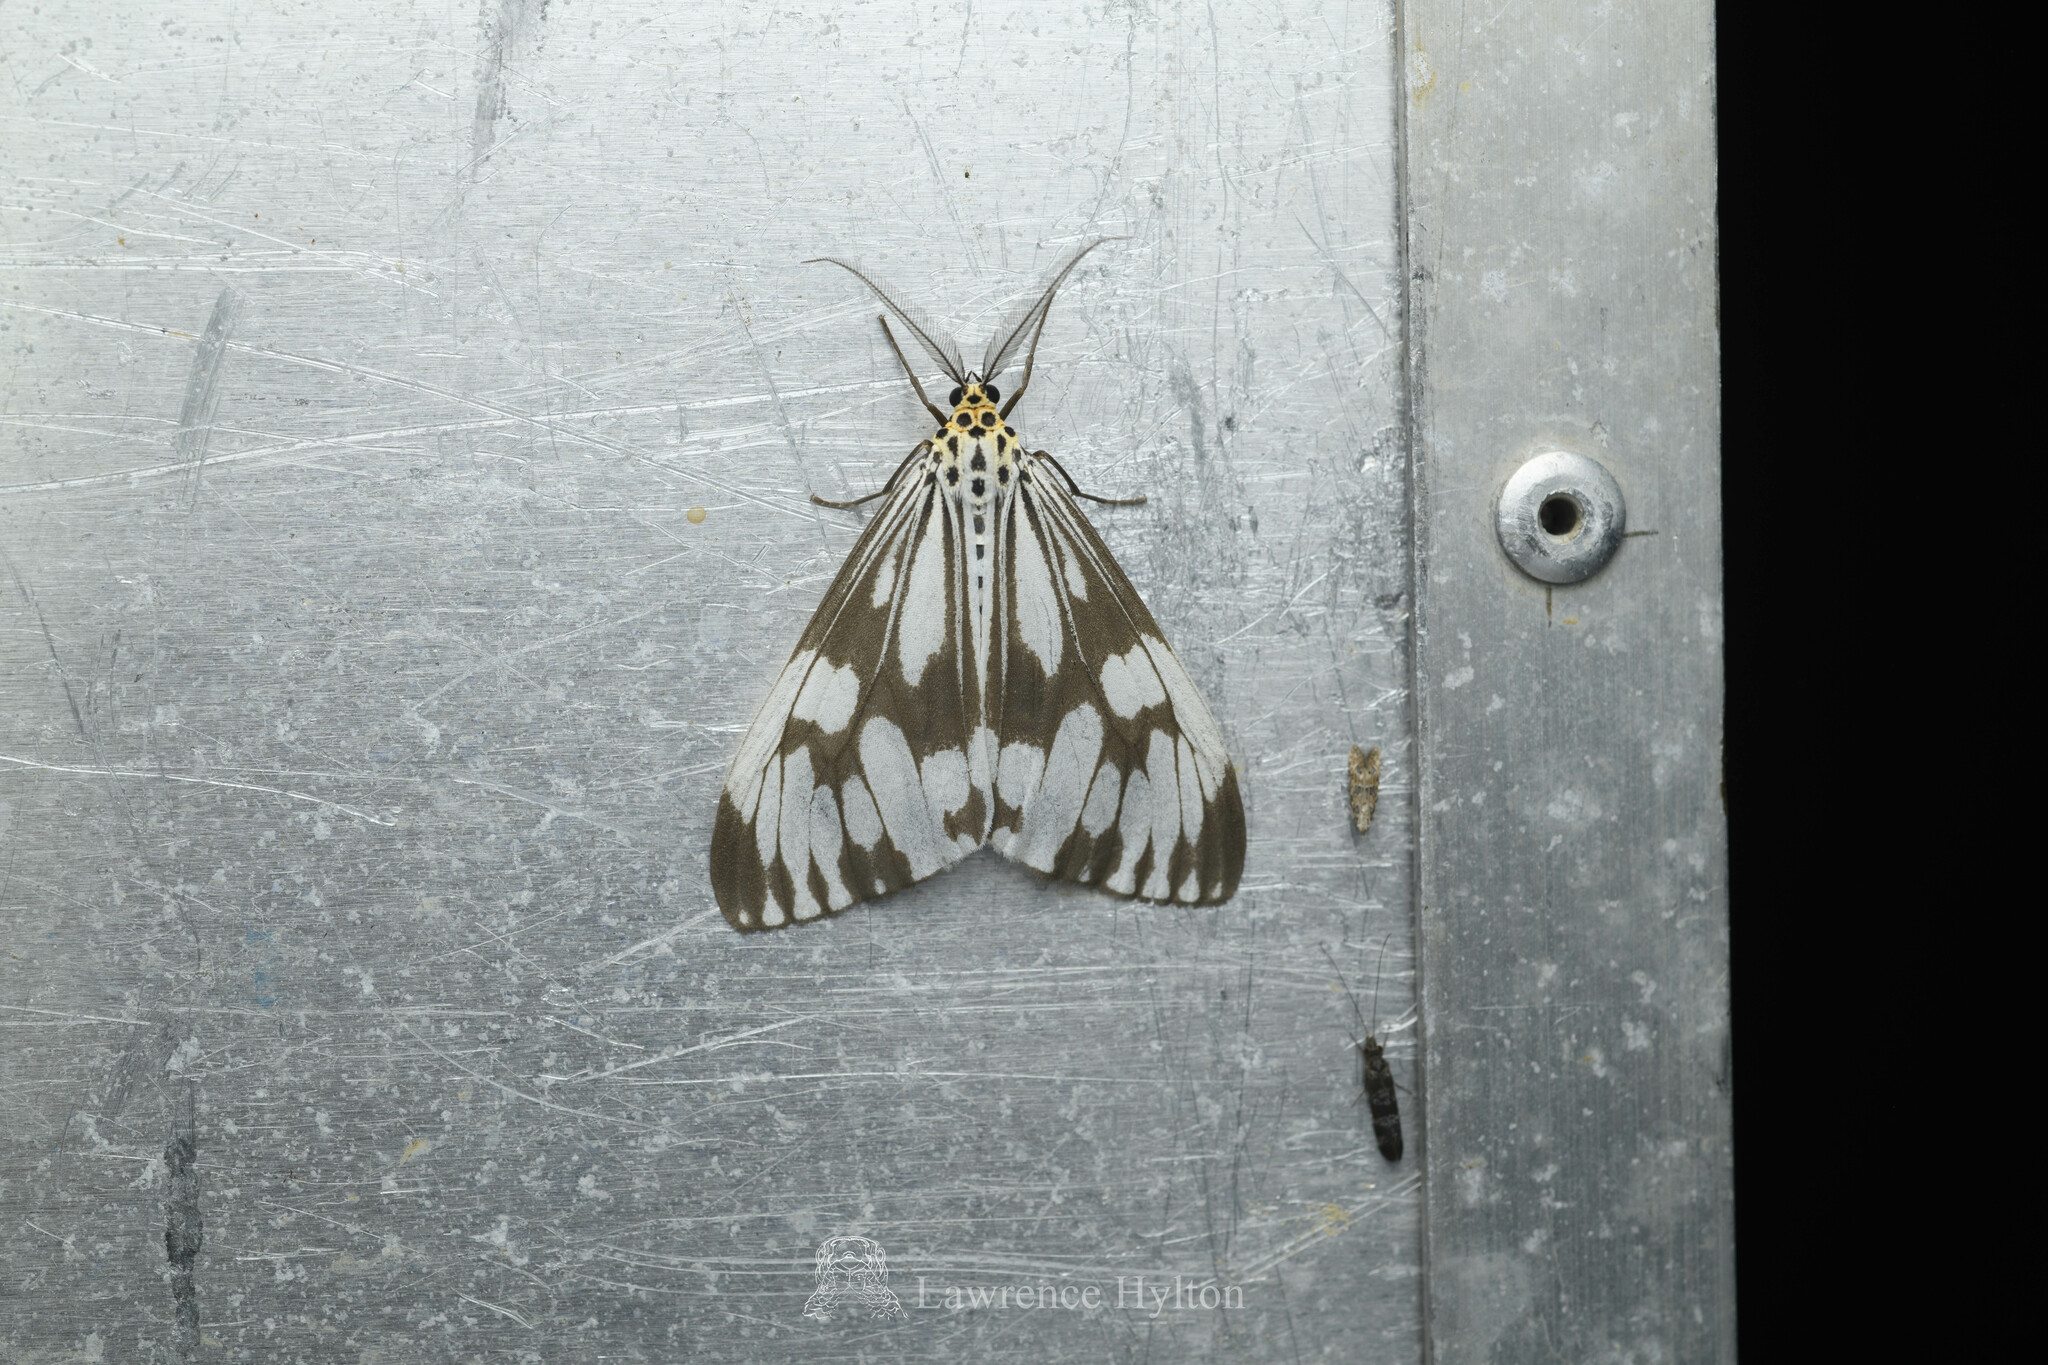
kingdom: Animalia
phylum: Arthropoda
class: Insecta
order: Lepidoptera
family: Erebidae
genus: Nyctemera
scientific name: Nyctemera adversata
